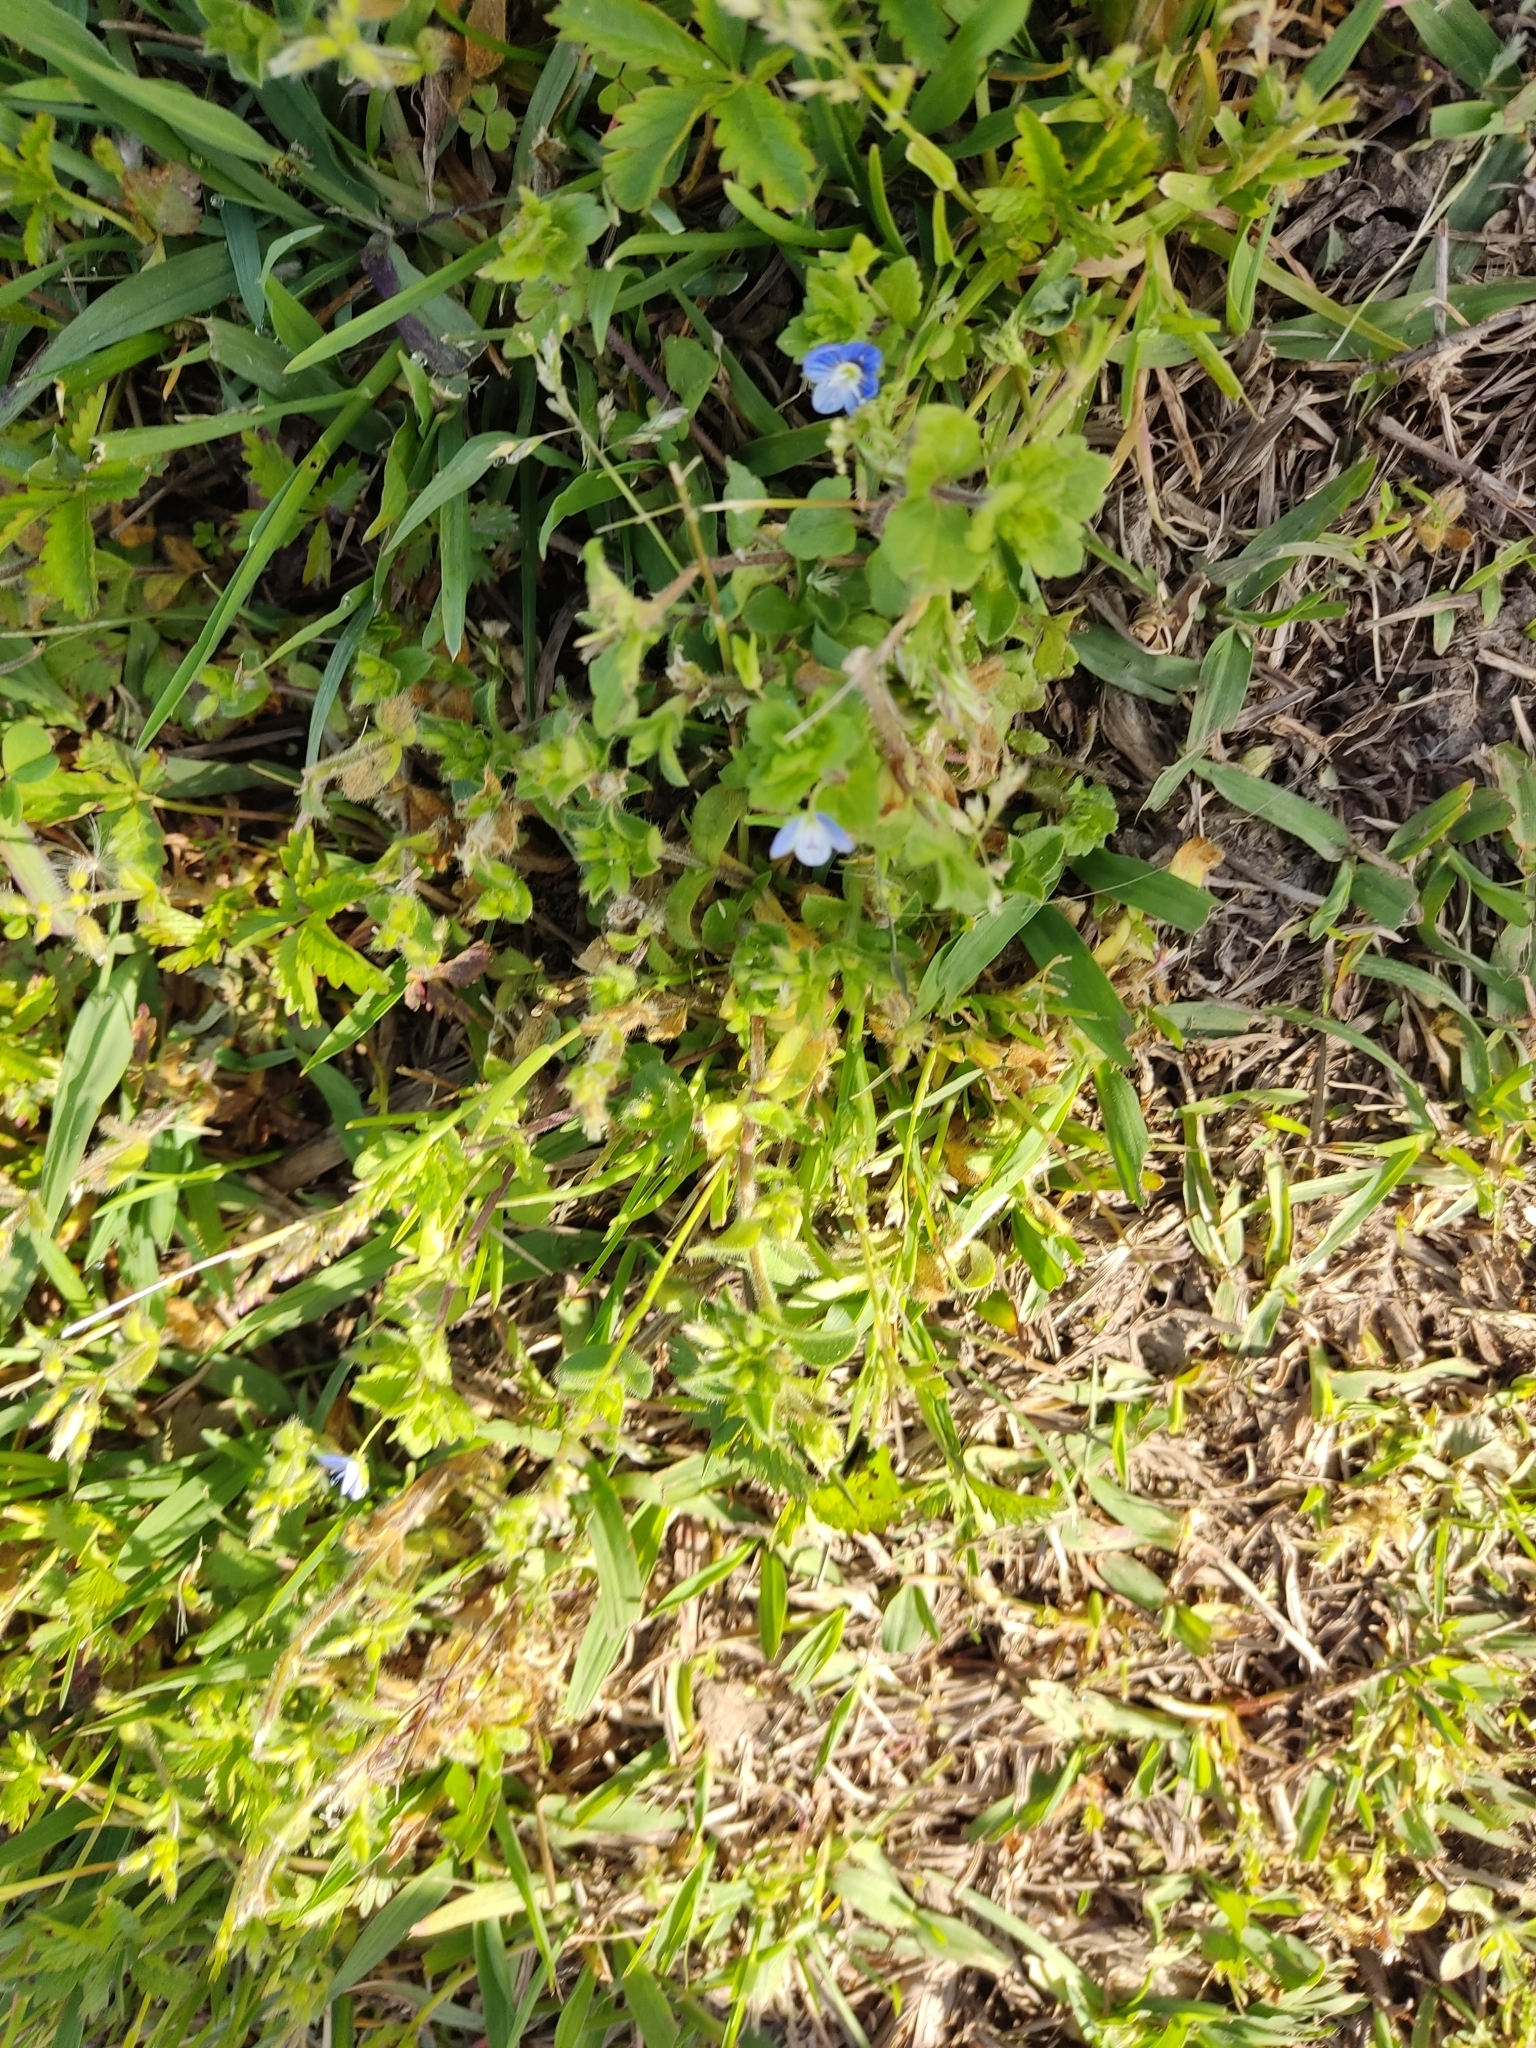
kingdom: Plantae
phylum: Tracheophyta
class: Magnoliopsida
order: Lamiales
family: Plantaginaceae
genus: Veronica
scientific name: Veronica persica
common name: Common field-speedwell
